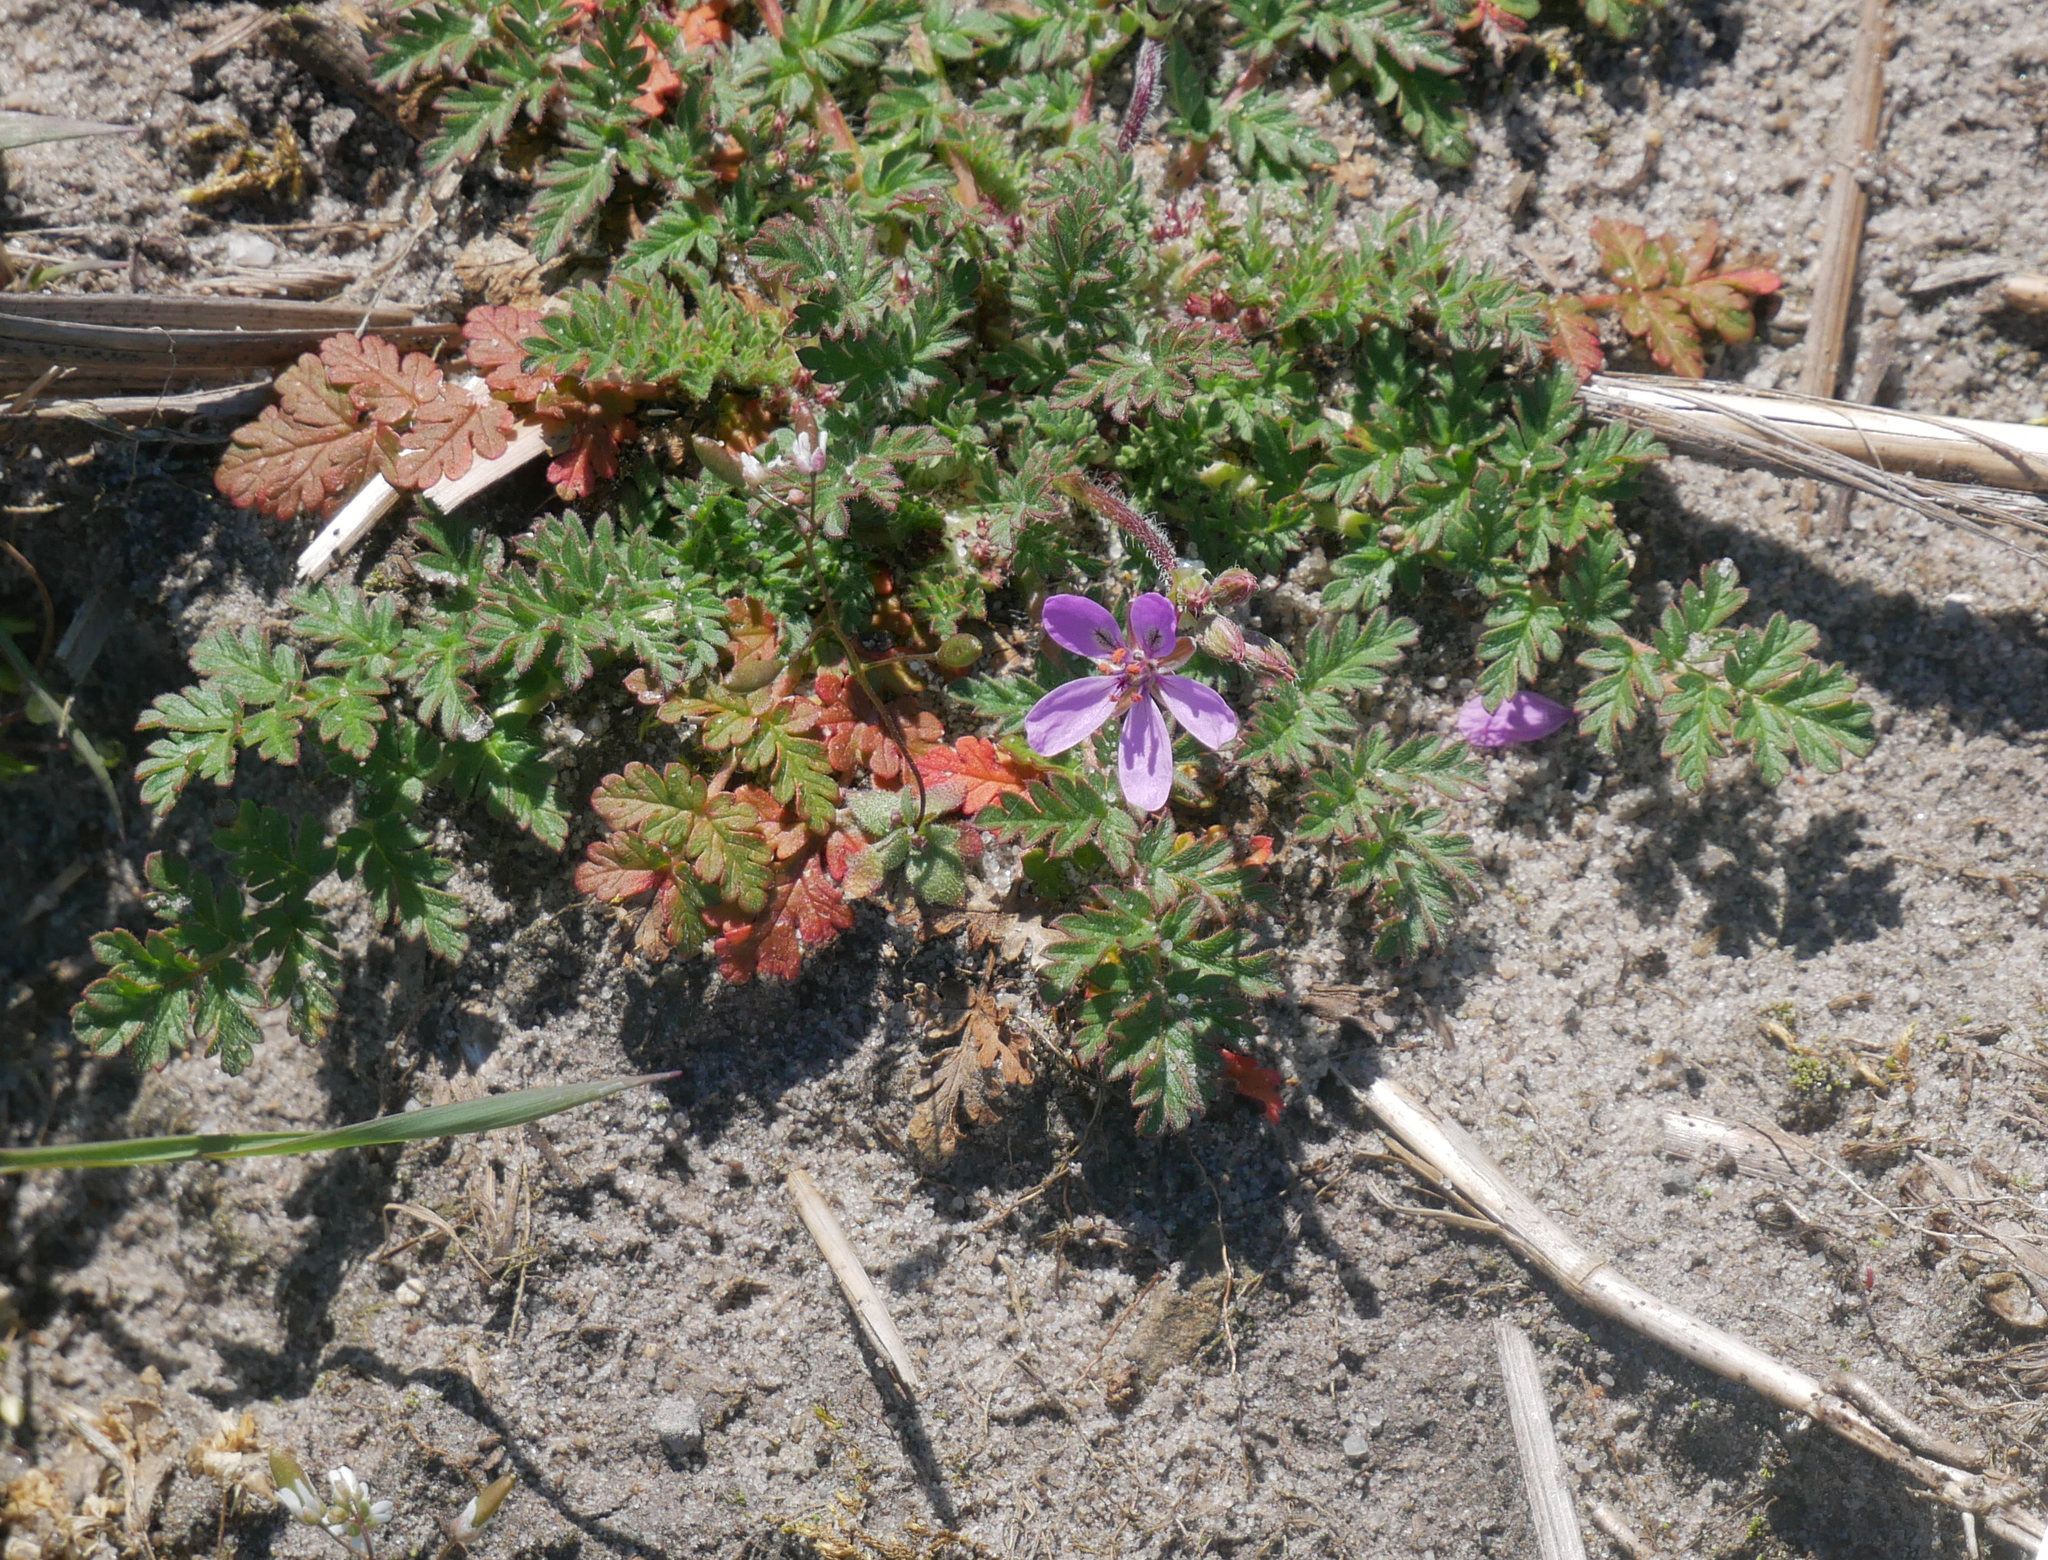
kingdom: Plantae
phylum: Tracheophyta
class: Magnoliopsida
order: Geraniales
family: Geraniaceae
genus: Erodium
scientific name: Erodium cicutarium
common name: Common stork's-bill
